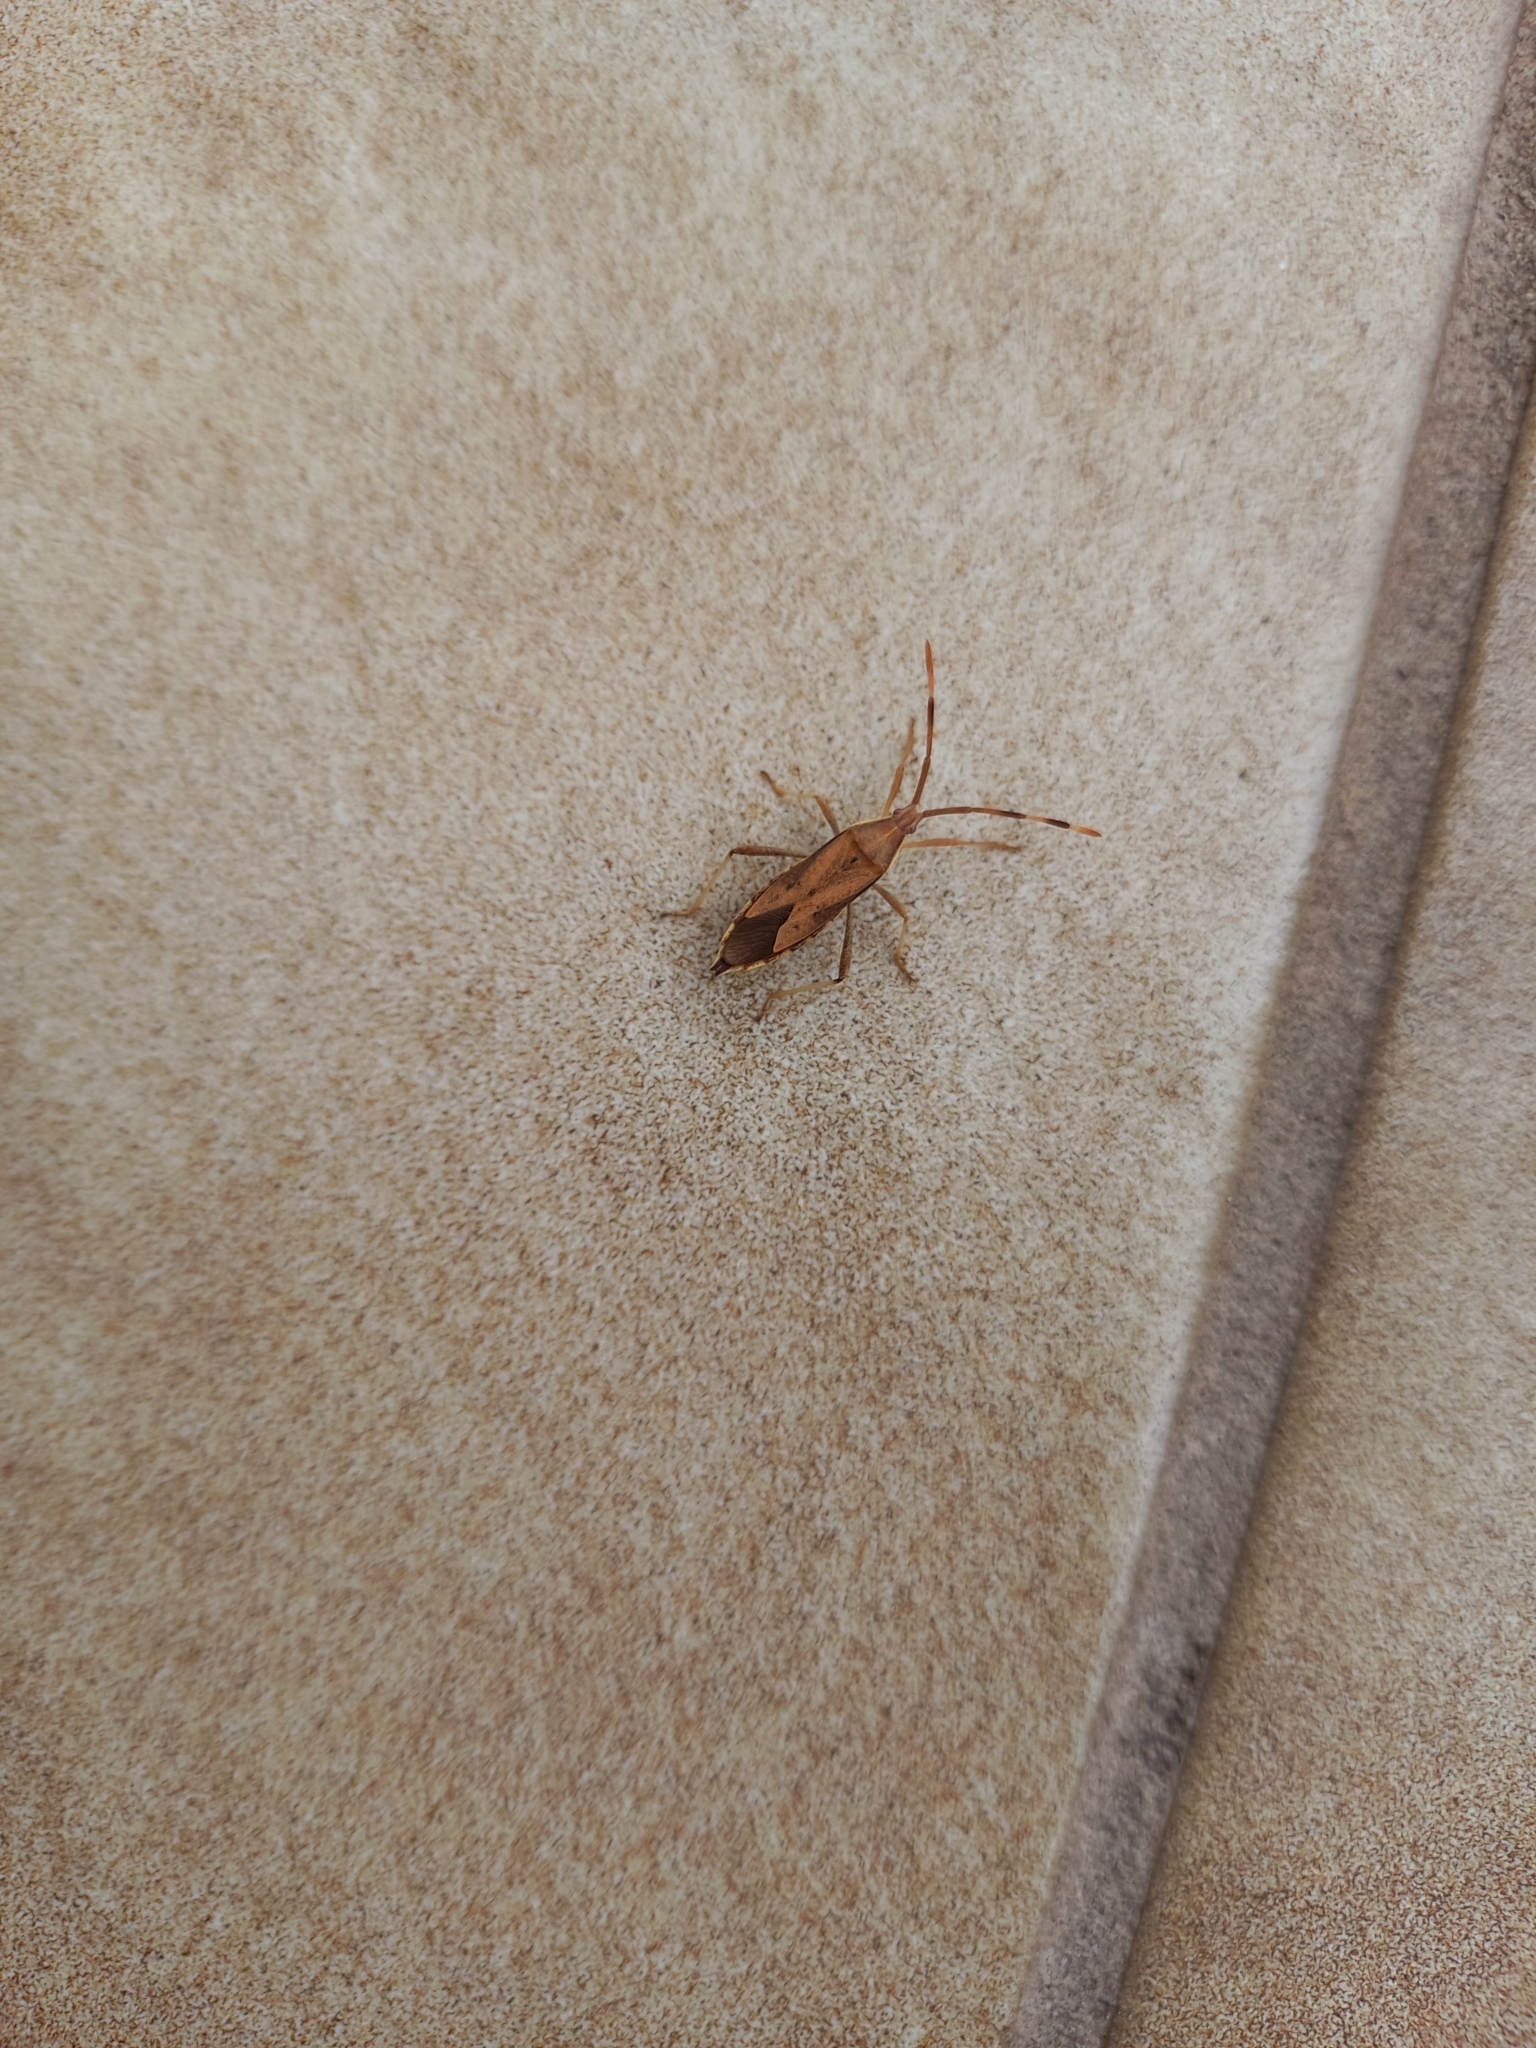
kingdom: Animalia
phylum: Arthropoda
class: Insecta
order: Hemiptera
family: Coreidae
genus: Pomponatius
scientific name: Pomponatius luridus
